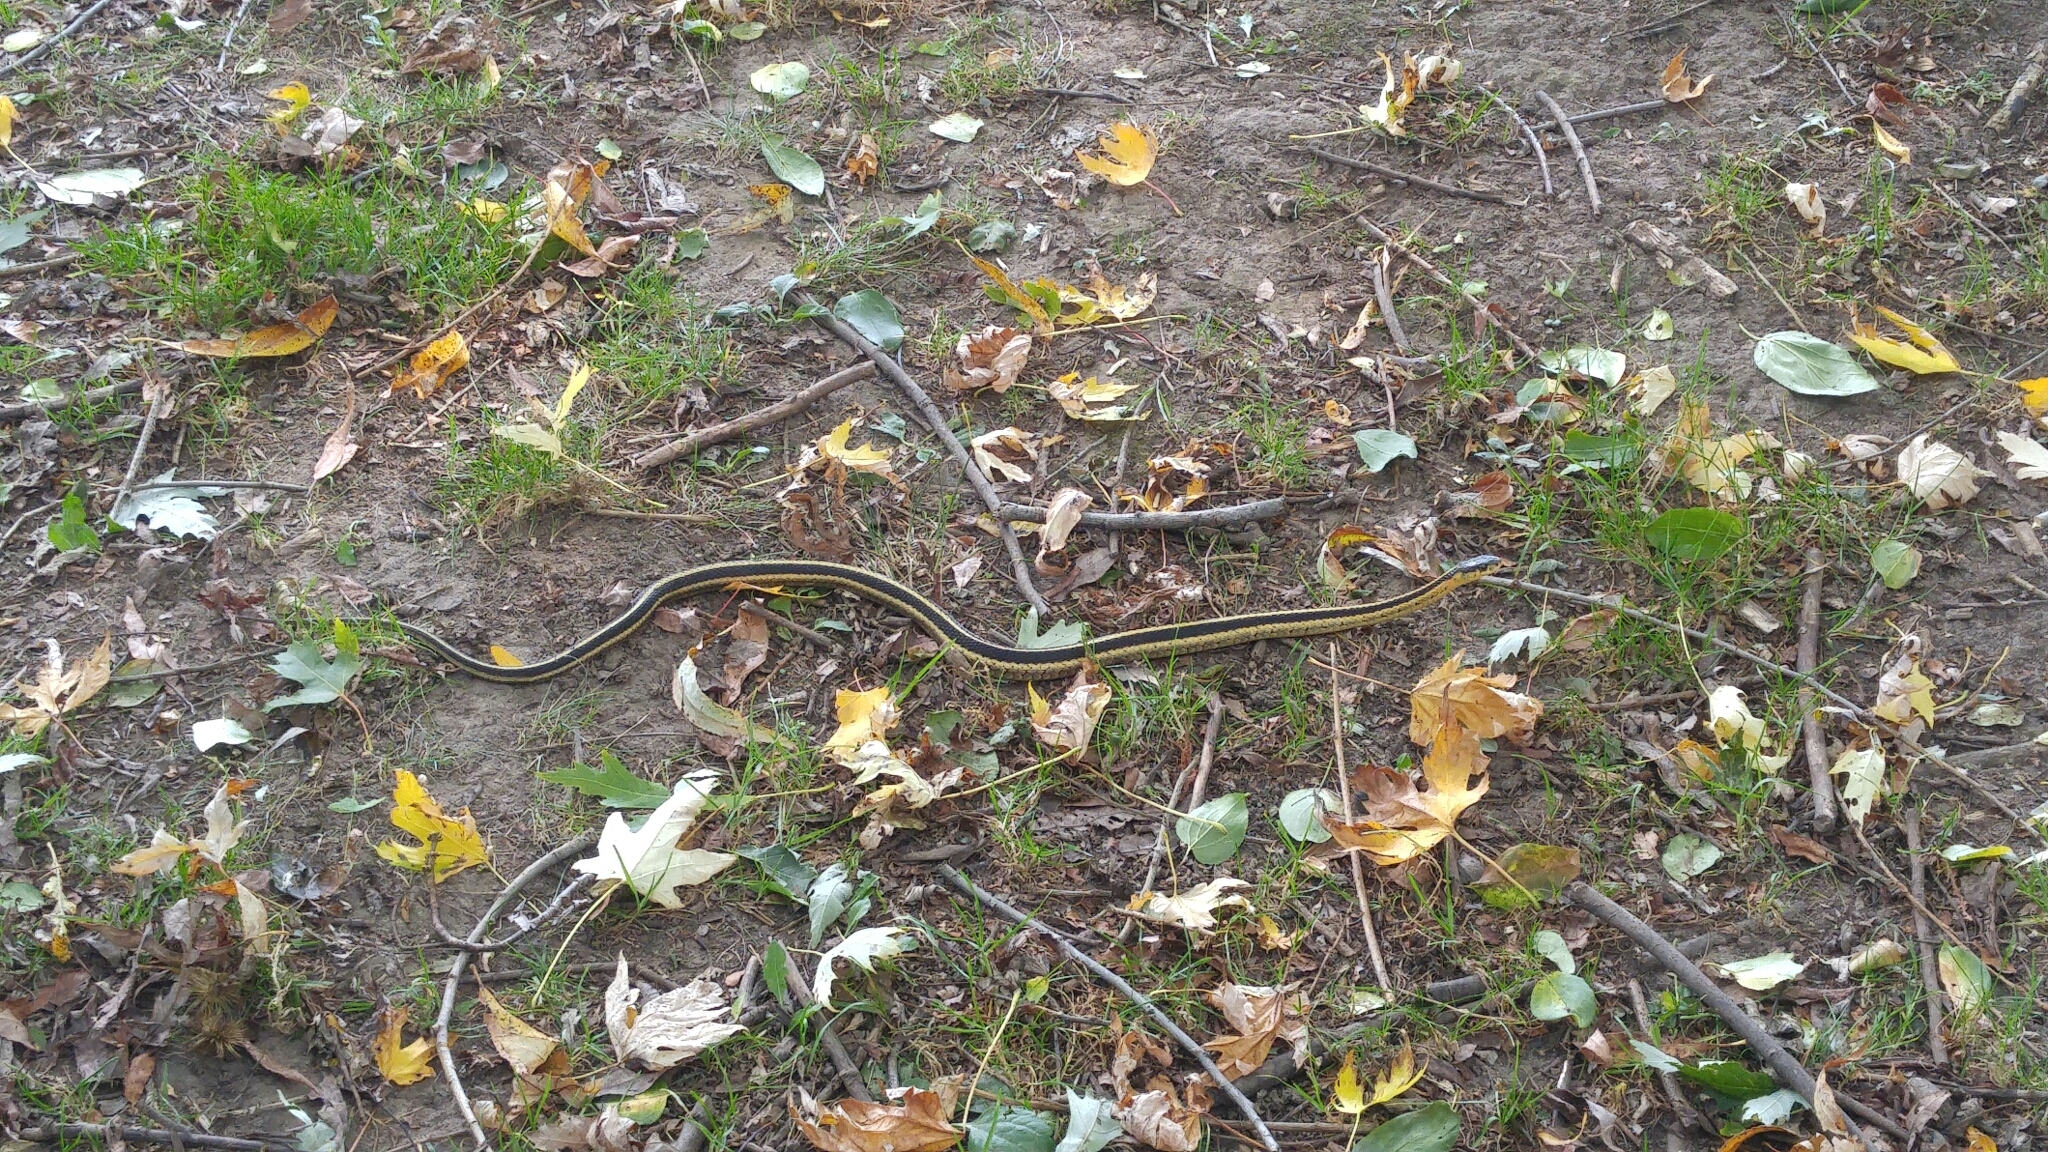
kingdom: Animalia
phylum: Chordata
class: Squamata
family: Colubridae
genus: Thamnophis
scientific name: Thamnophis sirtalis
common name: Common garter snake
